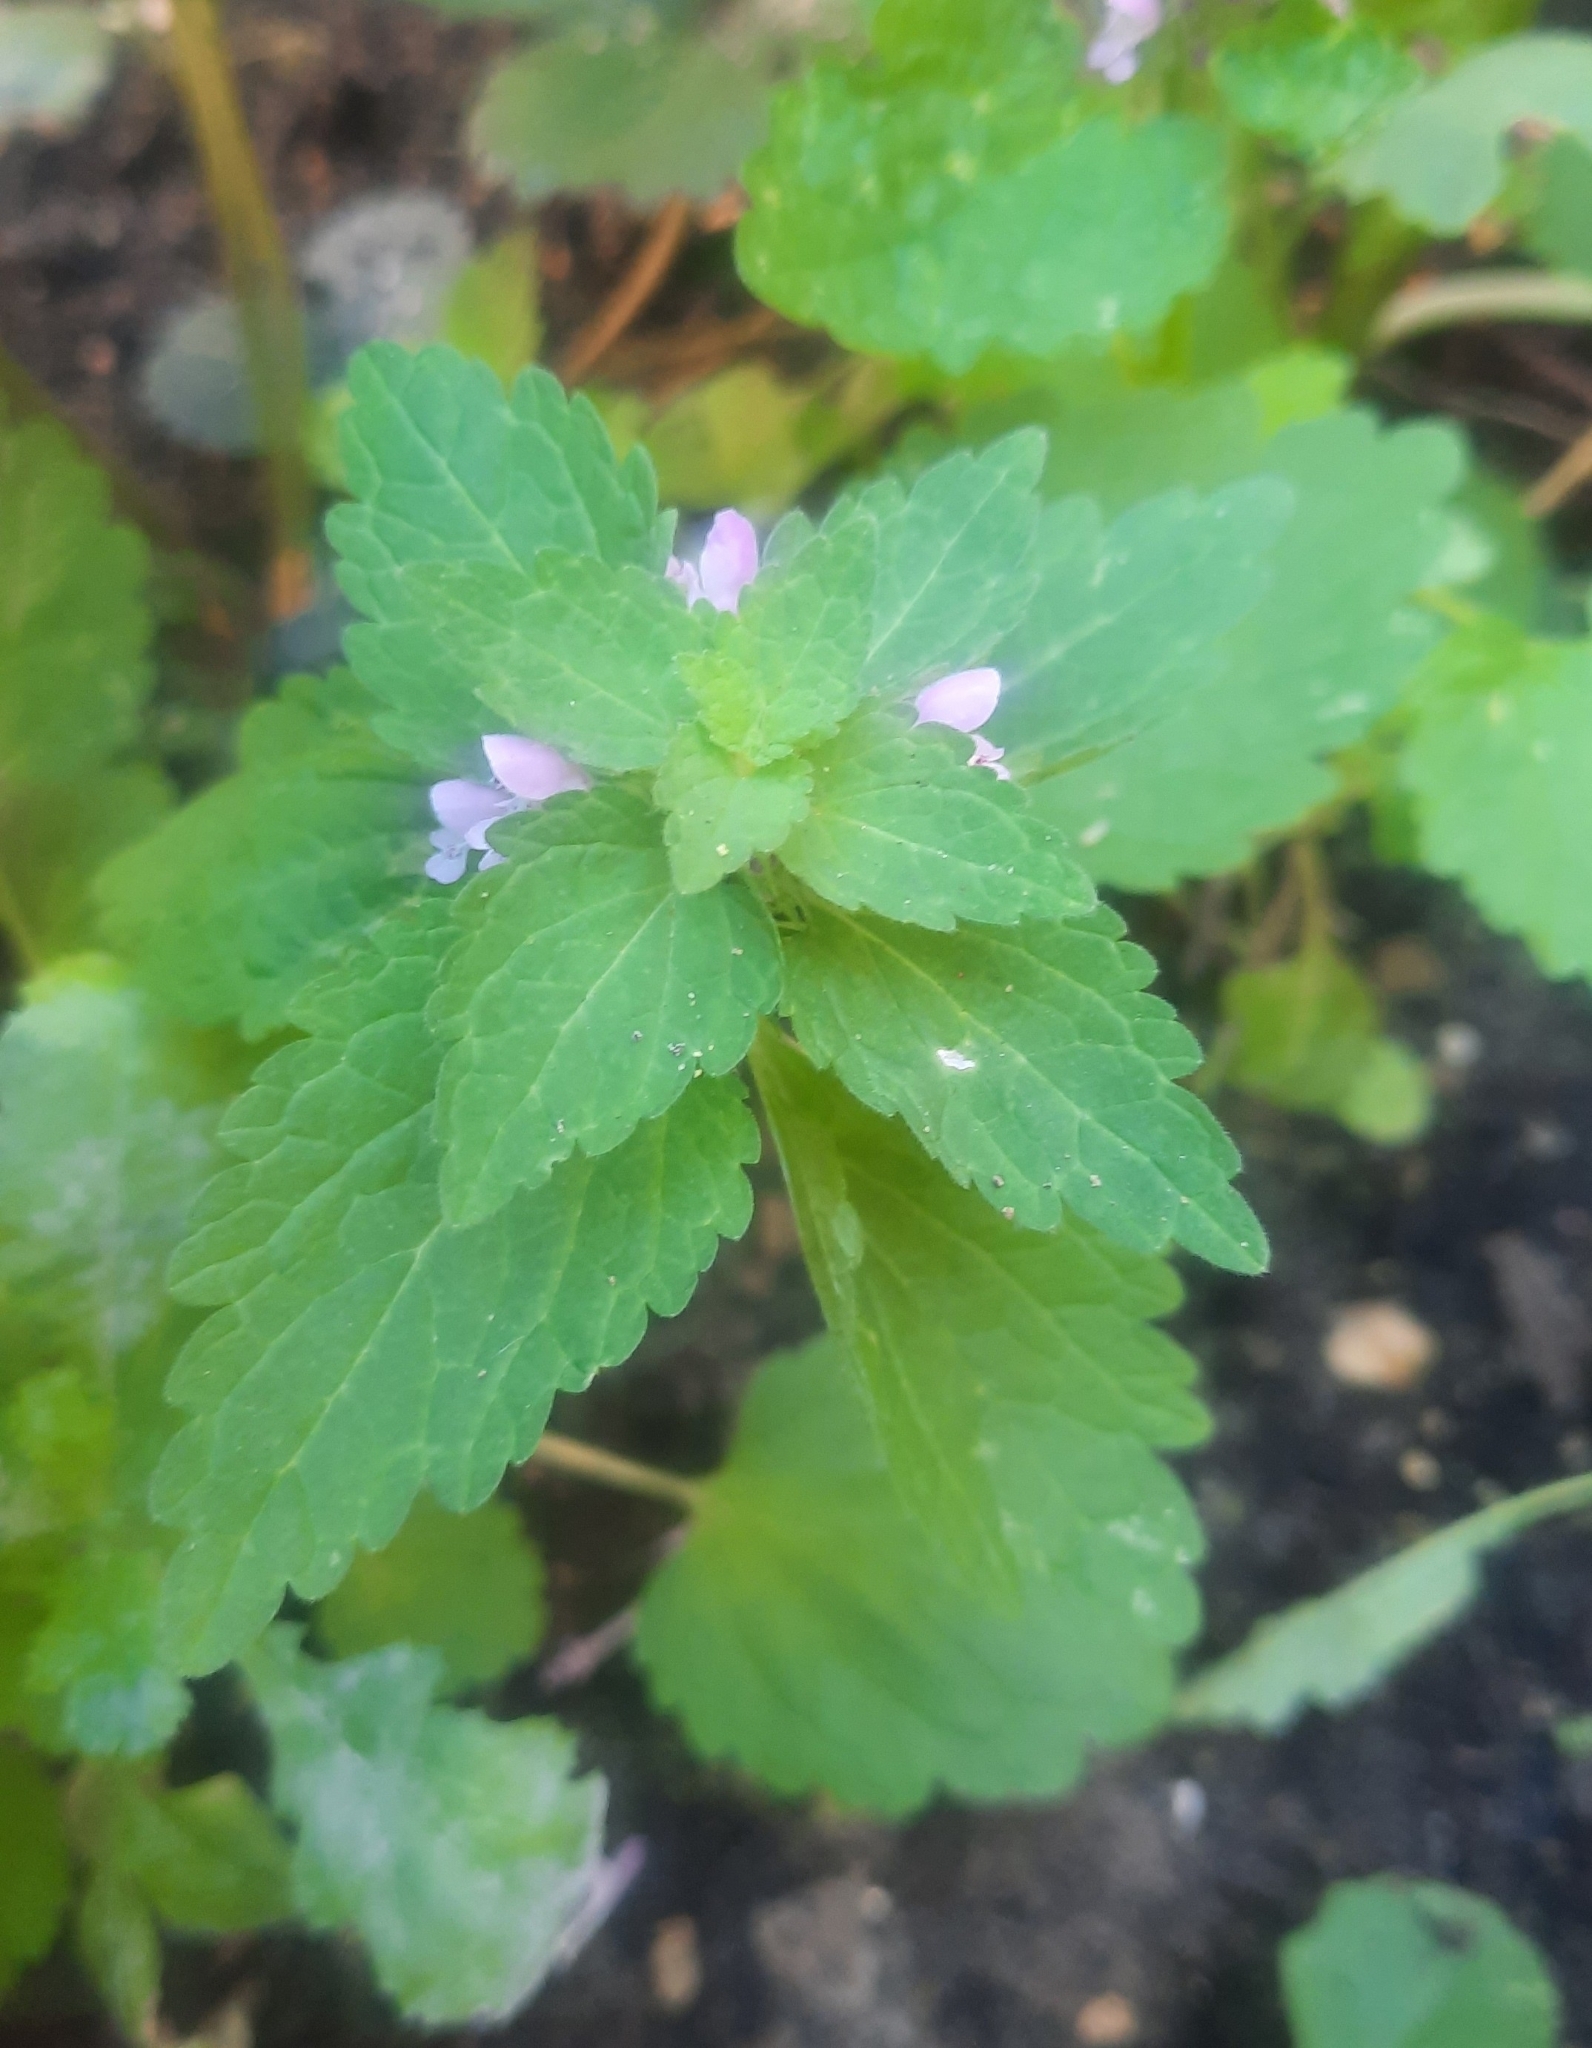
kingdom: Plantae
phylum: Tracheophyta
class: Magnoliopsida
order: Lamiales
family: Lamiaceae
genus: Lamium
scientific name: Lamium purpureum
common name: Red dead-nettle
